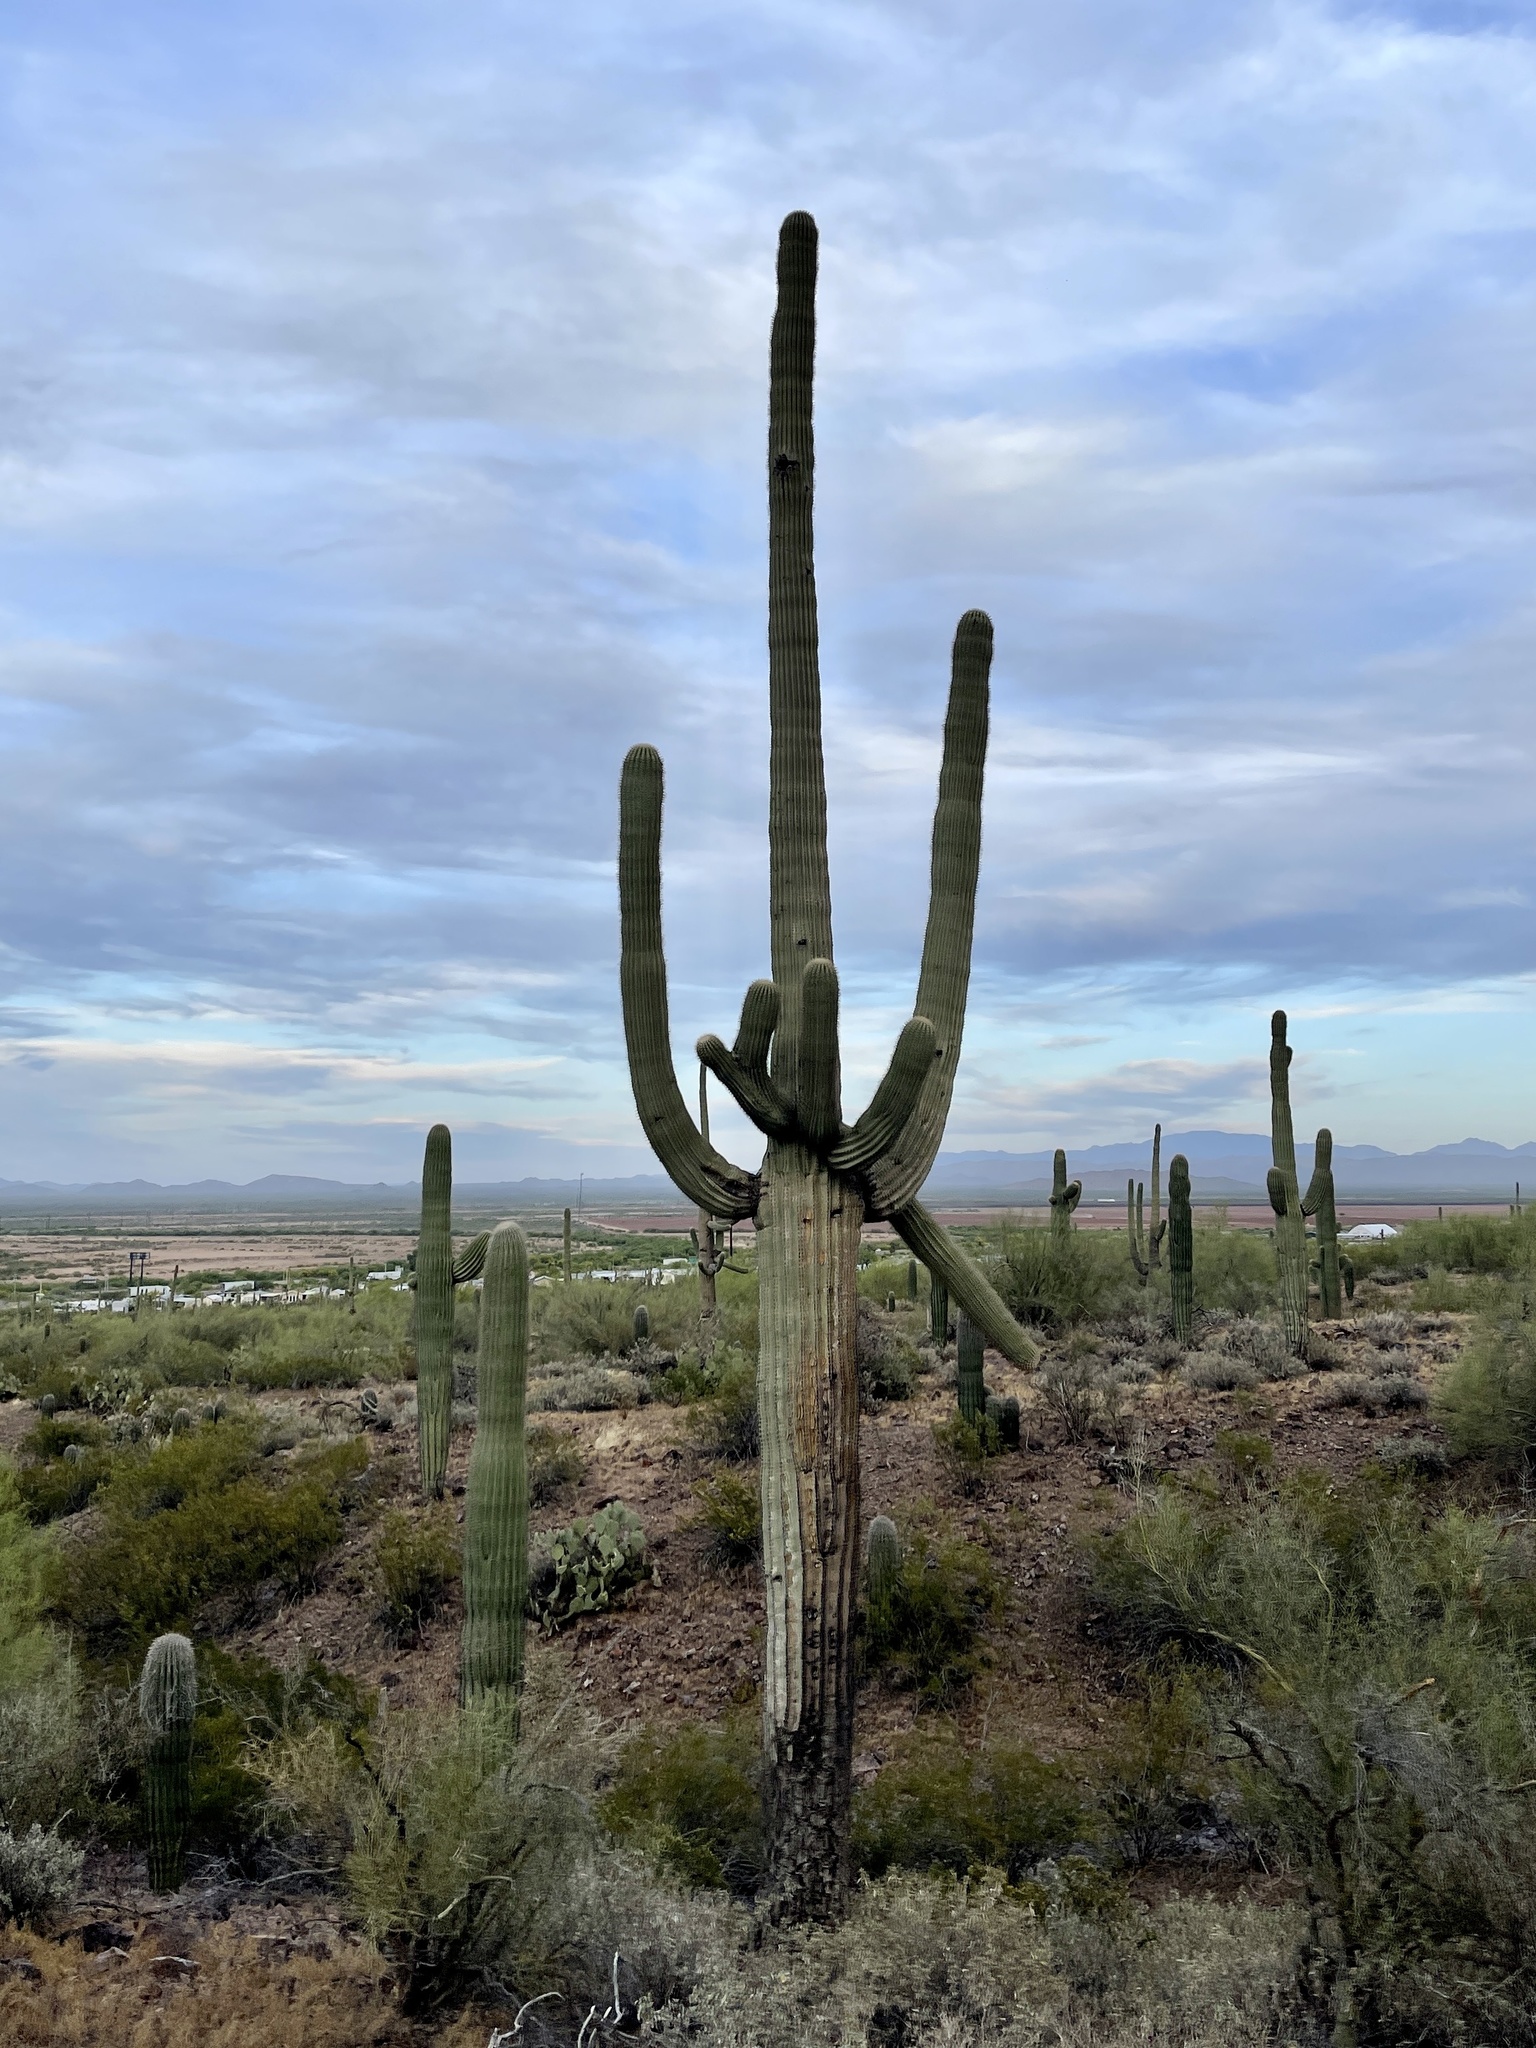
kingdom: Plantae
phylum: Tracheophyta
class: Magnoliopsida
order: Caryophyllales
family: Cactaceae
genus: Carnegiea
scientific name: Carnegiea gigantea
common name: Saguaro
